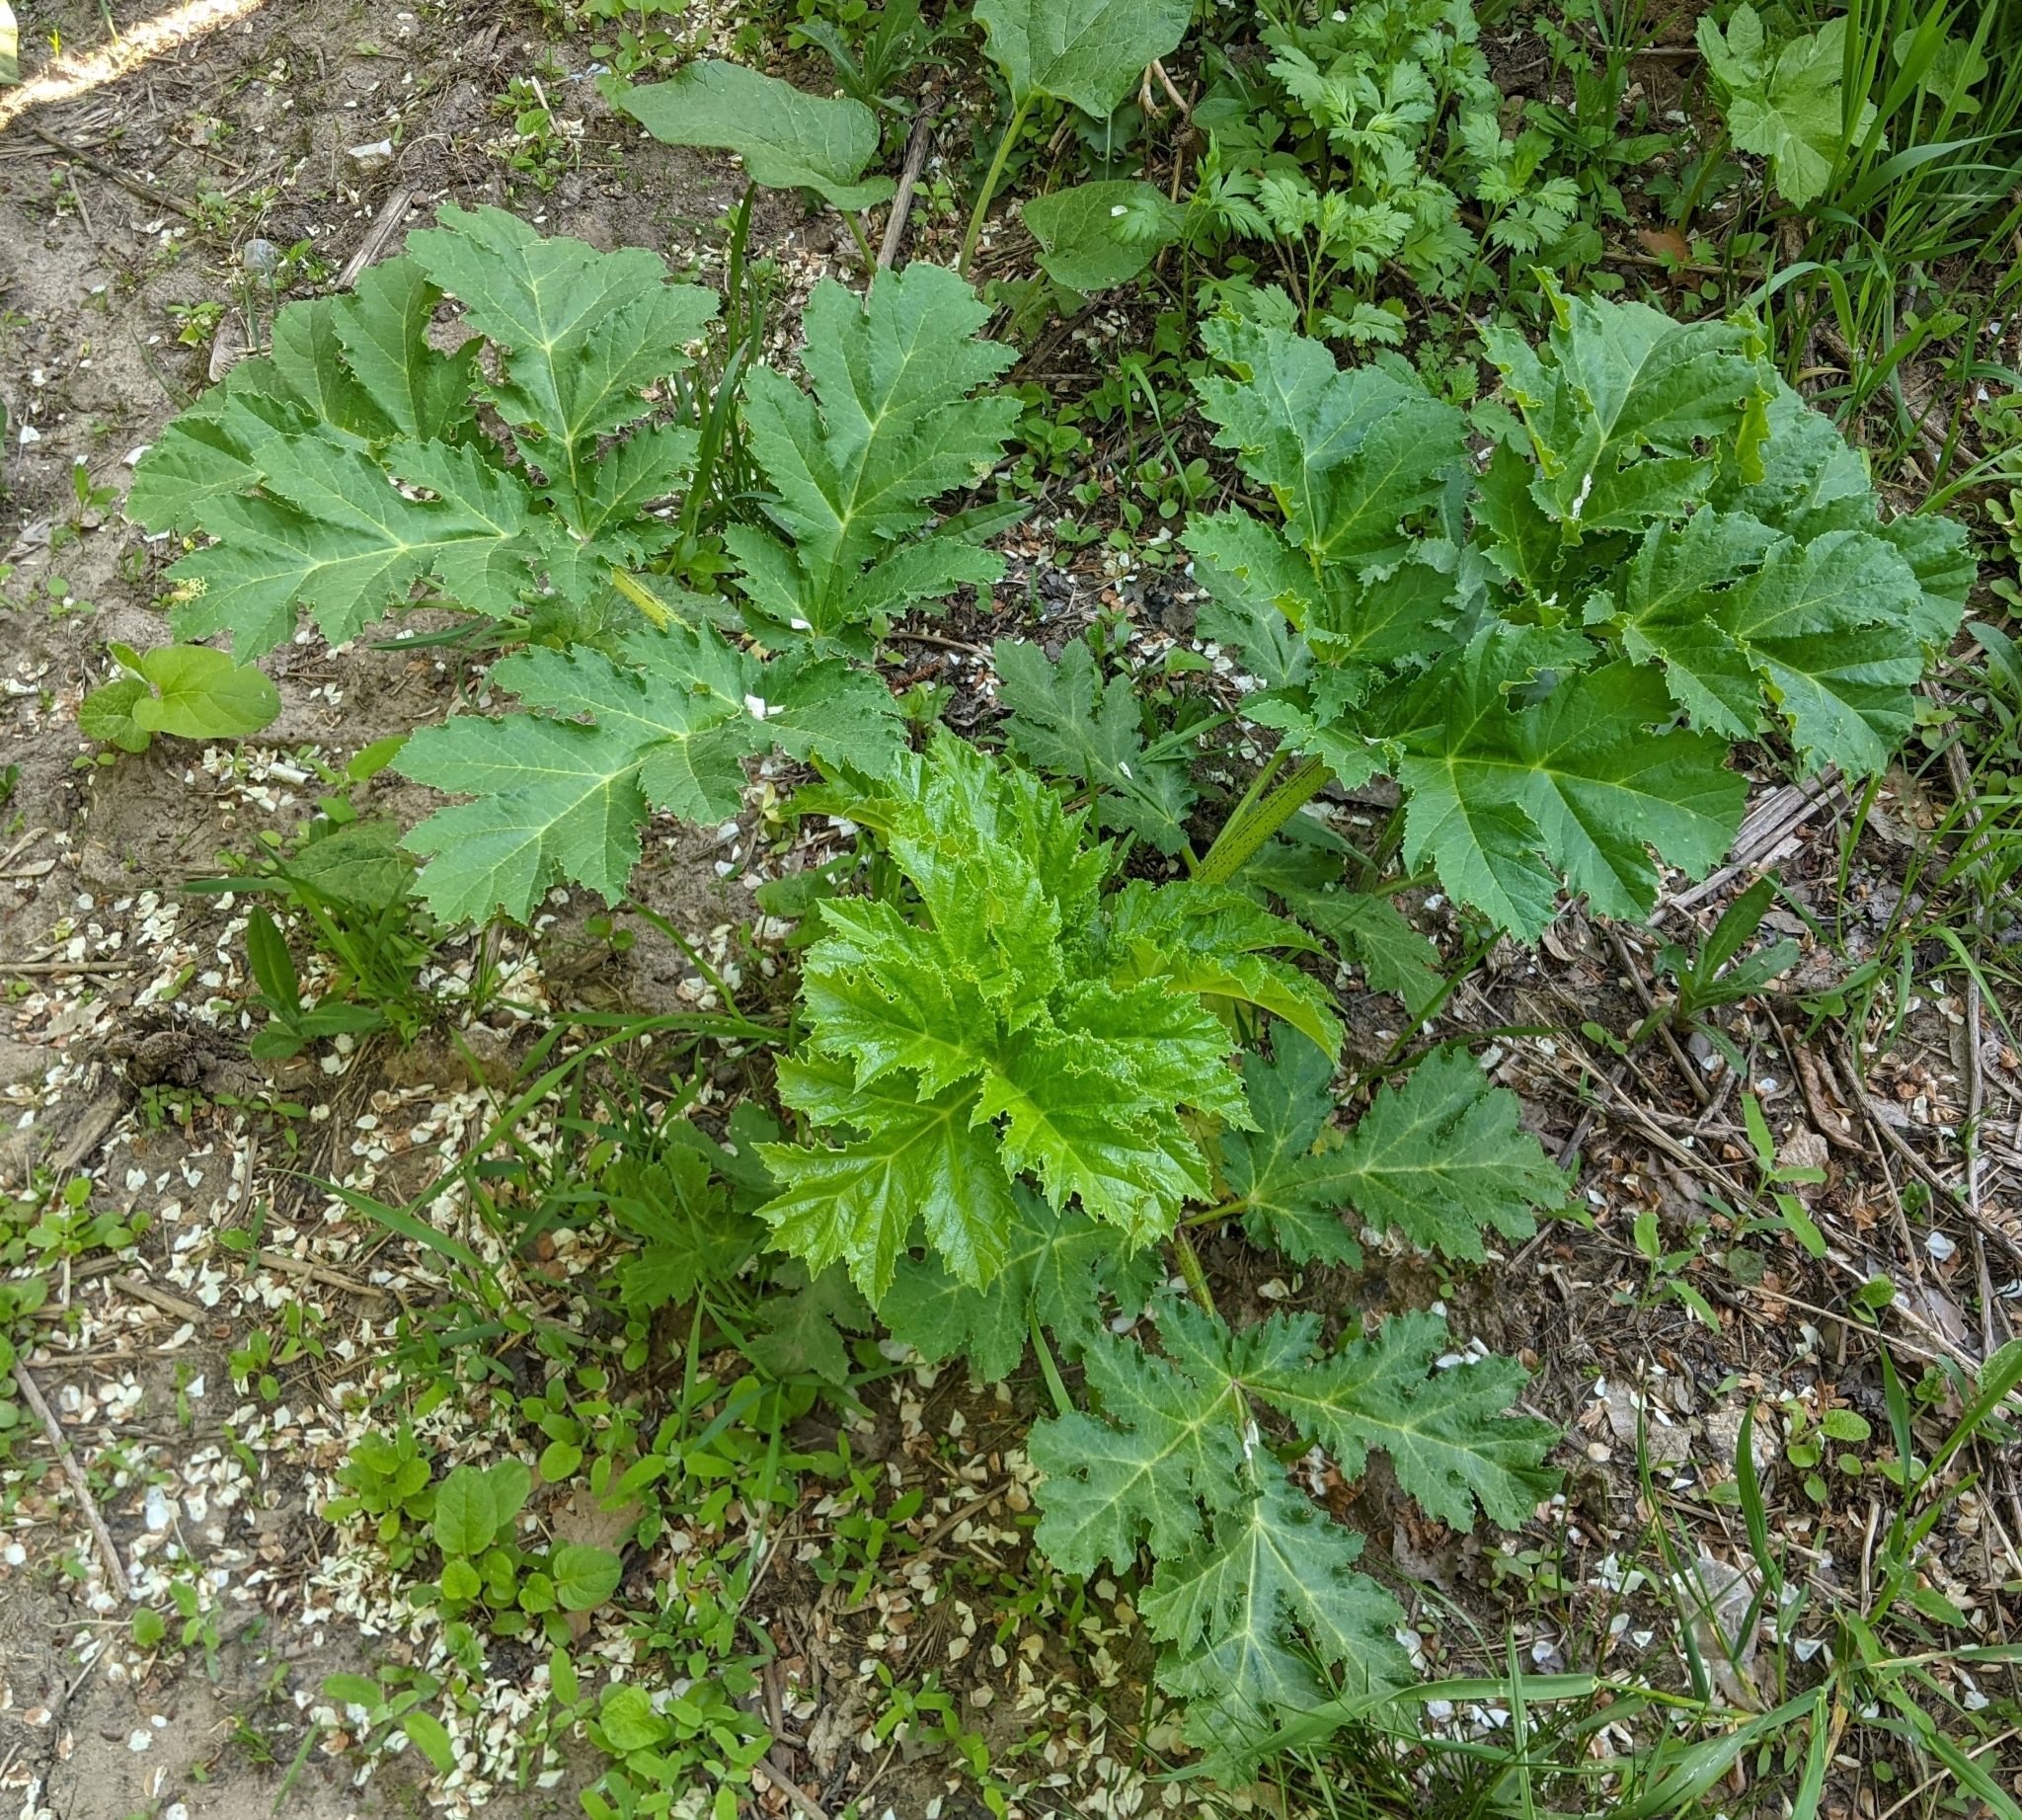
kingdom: Plantae
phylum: Tracheophyta
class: Magnoliopsida
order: Apiales
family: Apiaceae
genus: Heracleum
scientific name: Heracleum sosnowskyi
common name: Sosnowsky's hogweed
